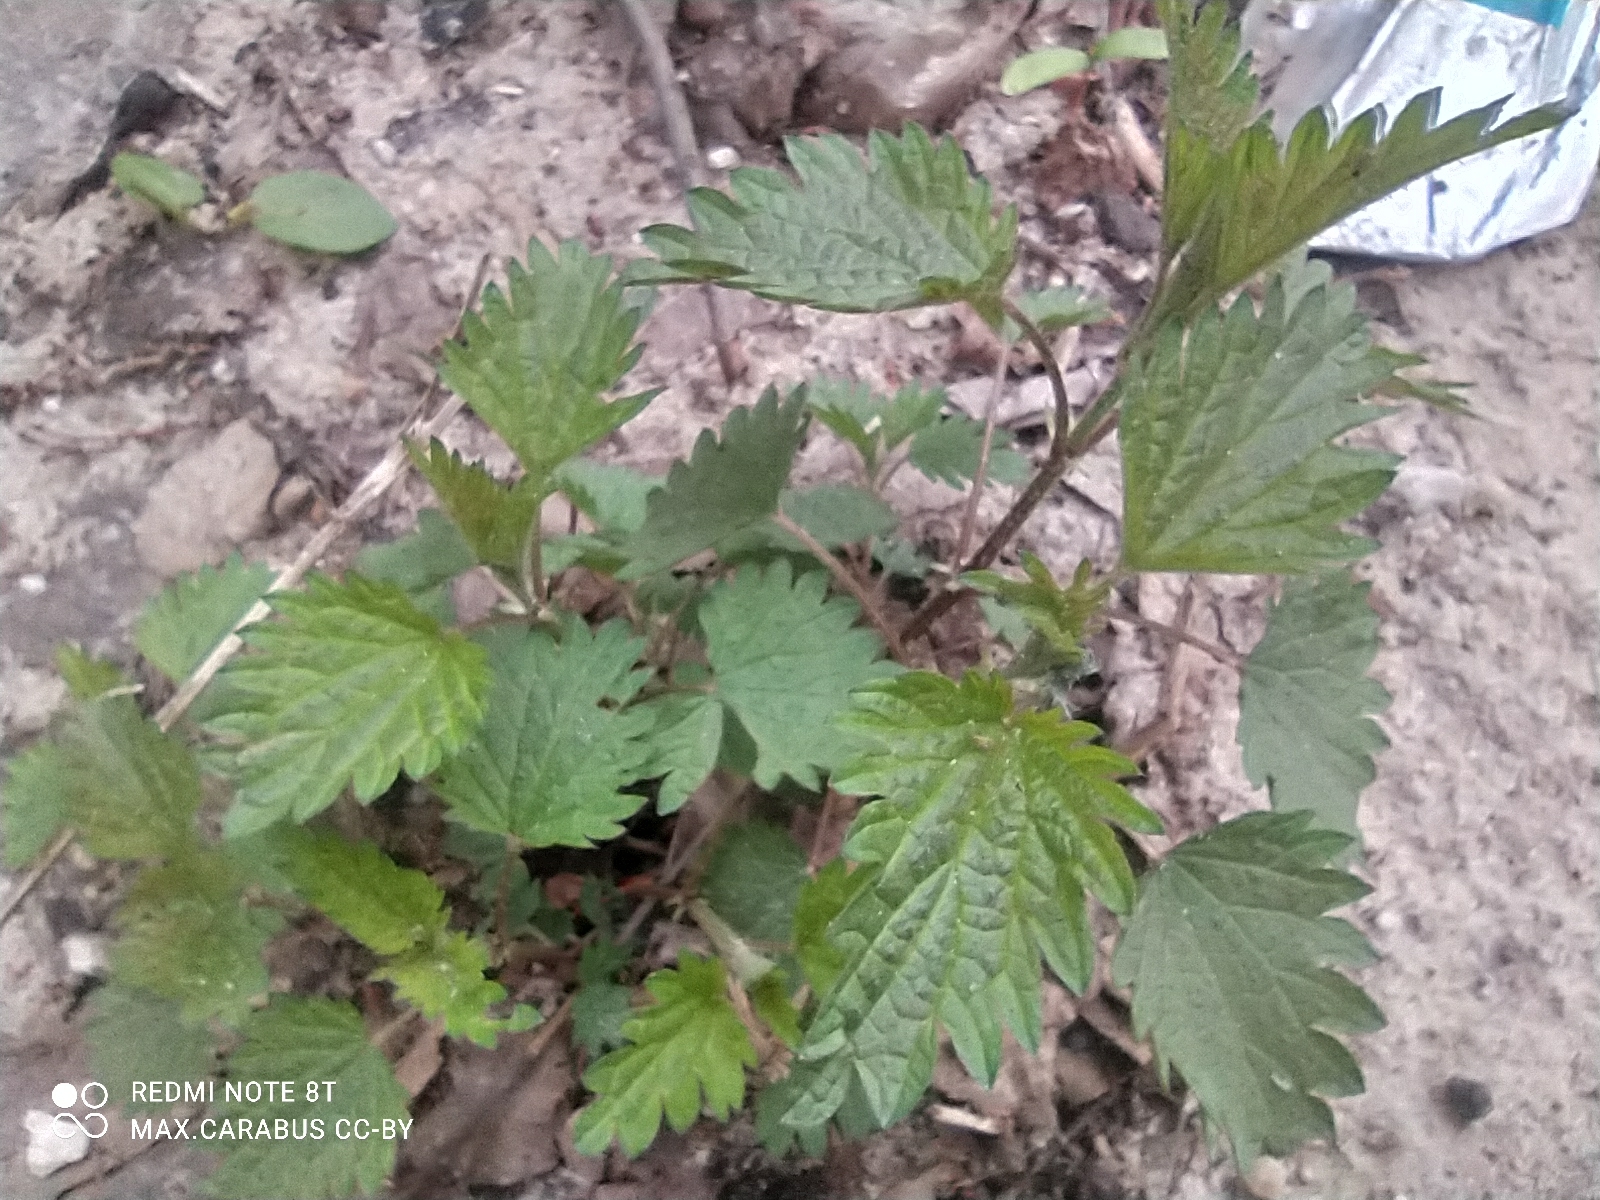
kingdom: Plantae
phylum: Tracheophyta
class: Magnoliopsida
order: Rosales
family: Urticaceae
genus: Urtica
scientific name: Urtica dioica
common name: Common nettle
